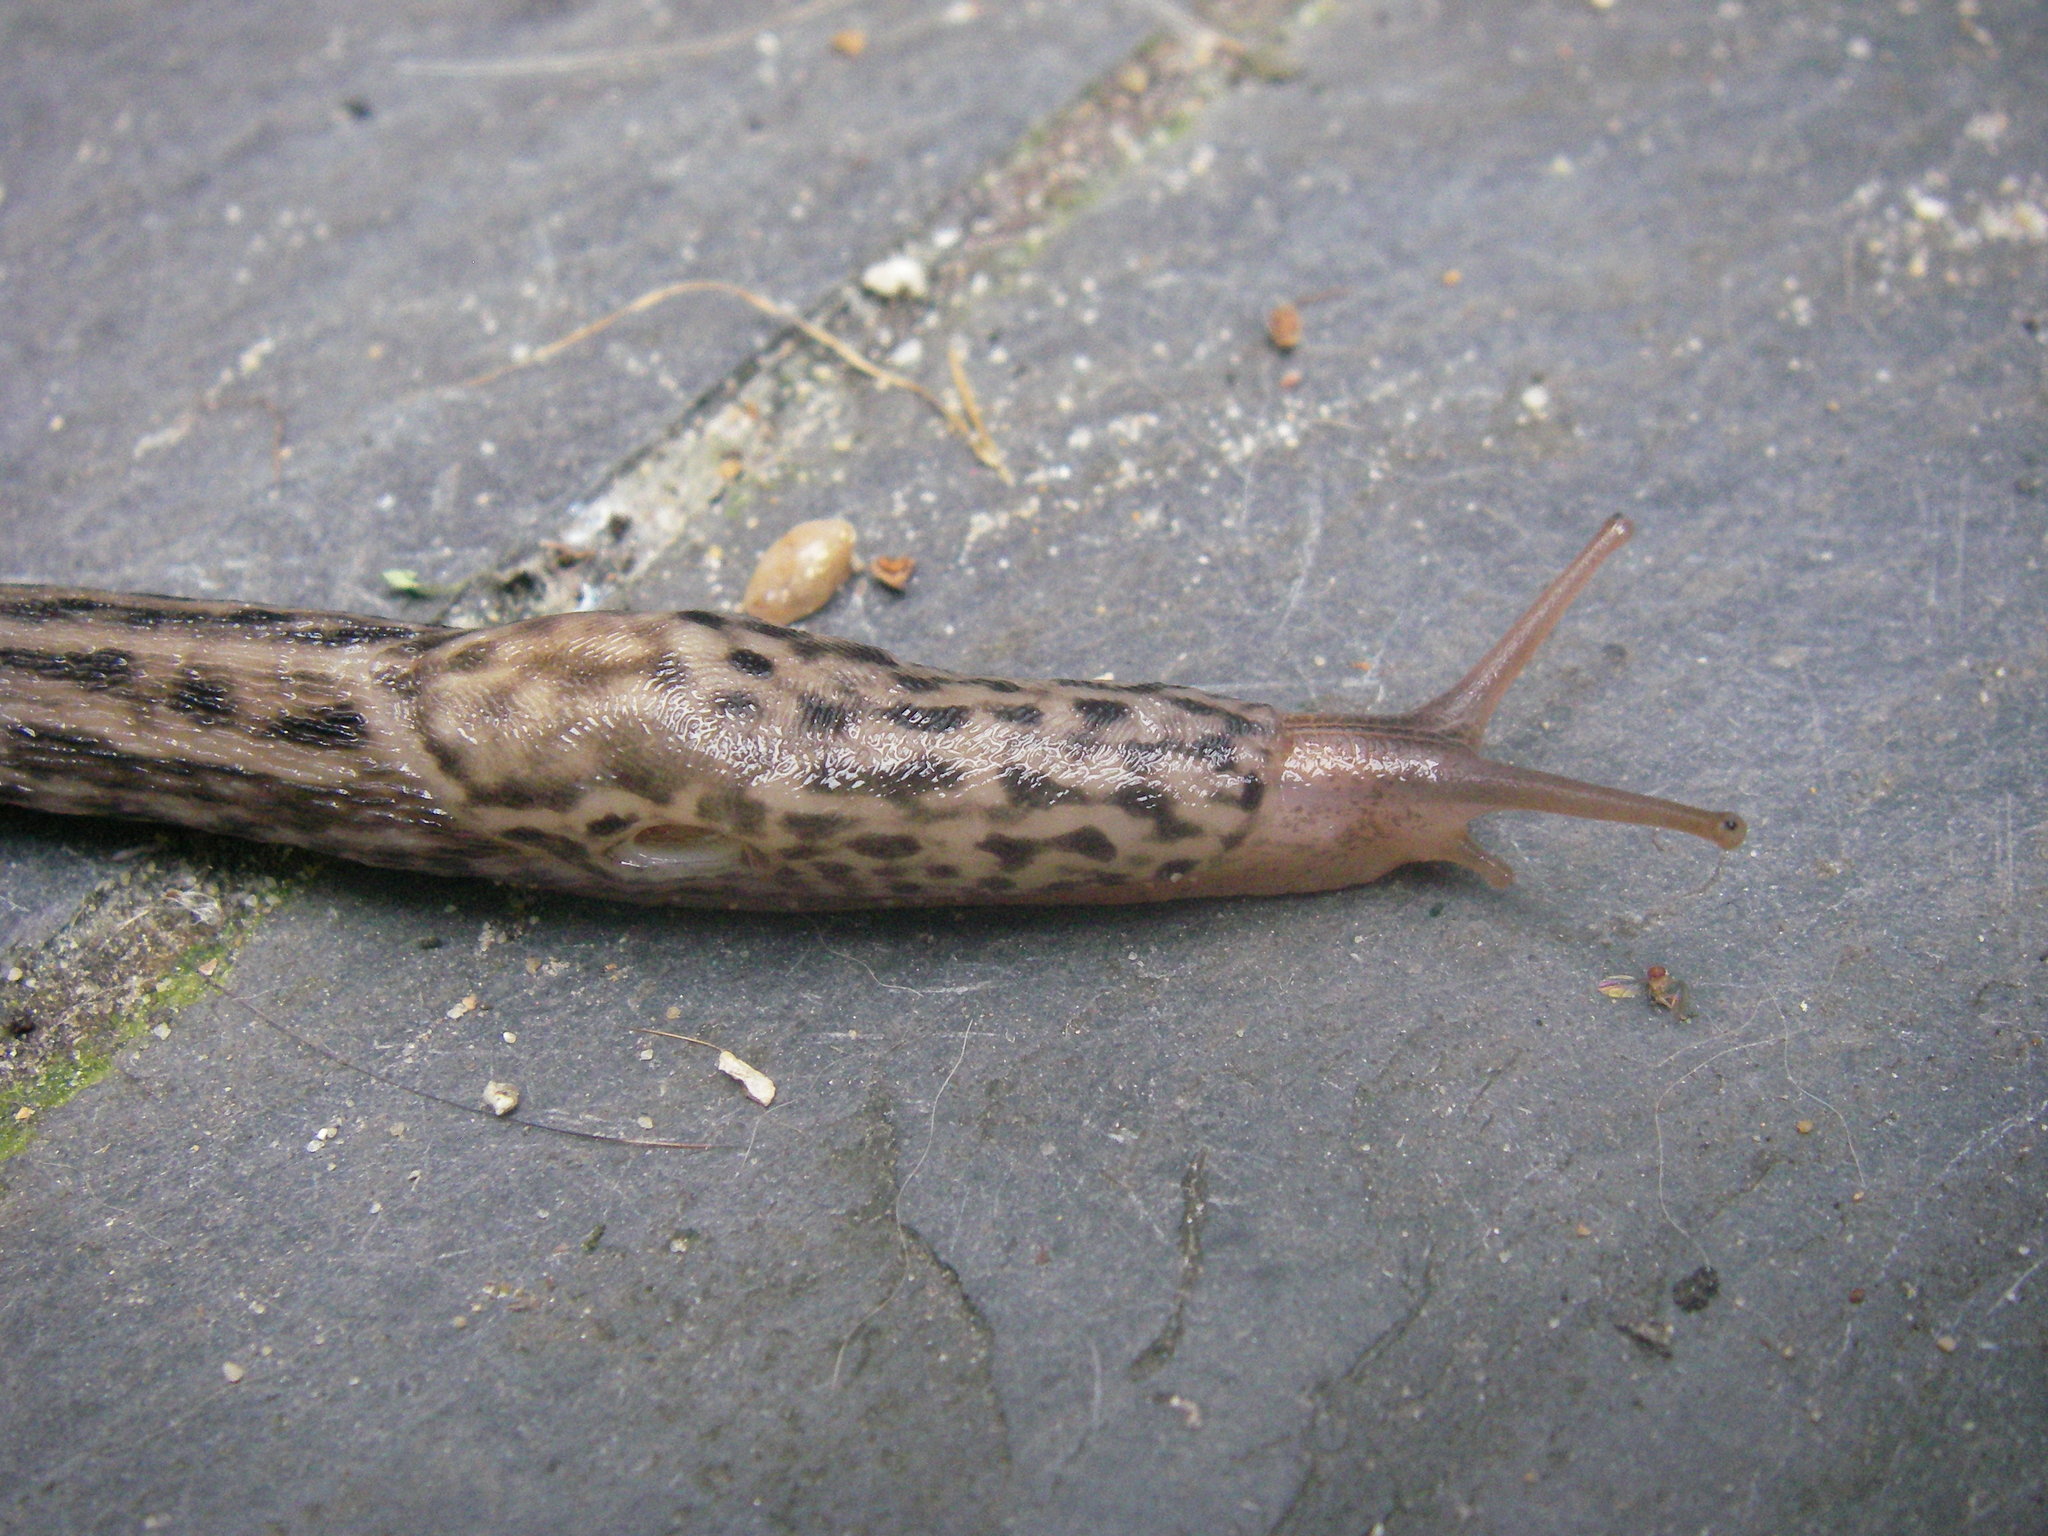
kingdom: Animalia
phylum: Mollusca
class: Gastropoda
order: Stylommatophora
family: Limacidae
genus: Limax
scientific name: Limax maximus
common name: Great grey slug
